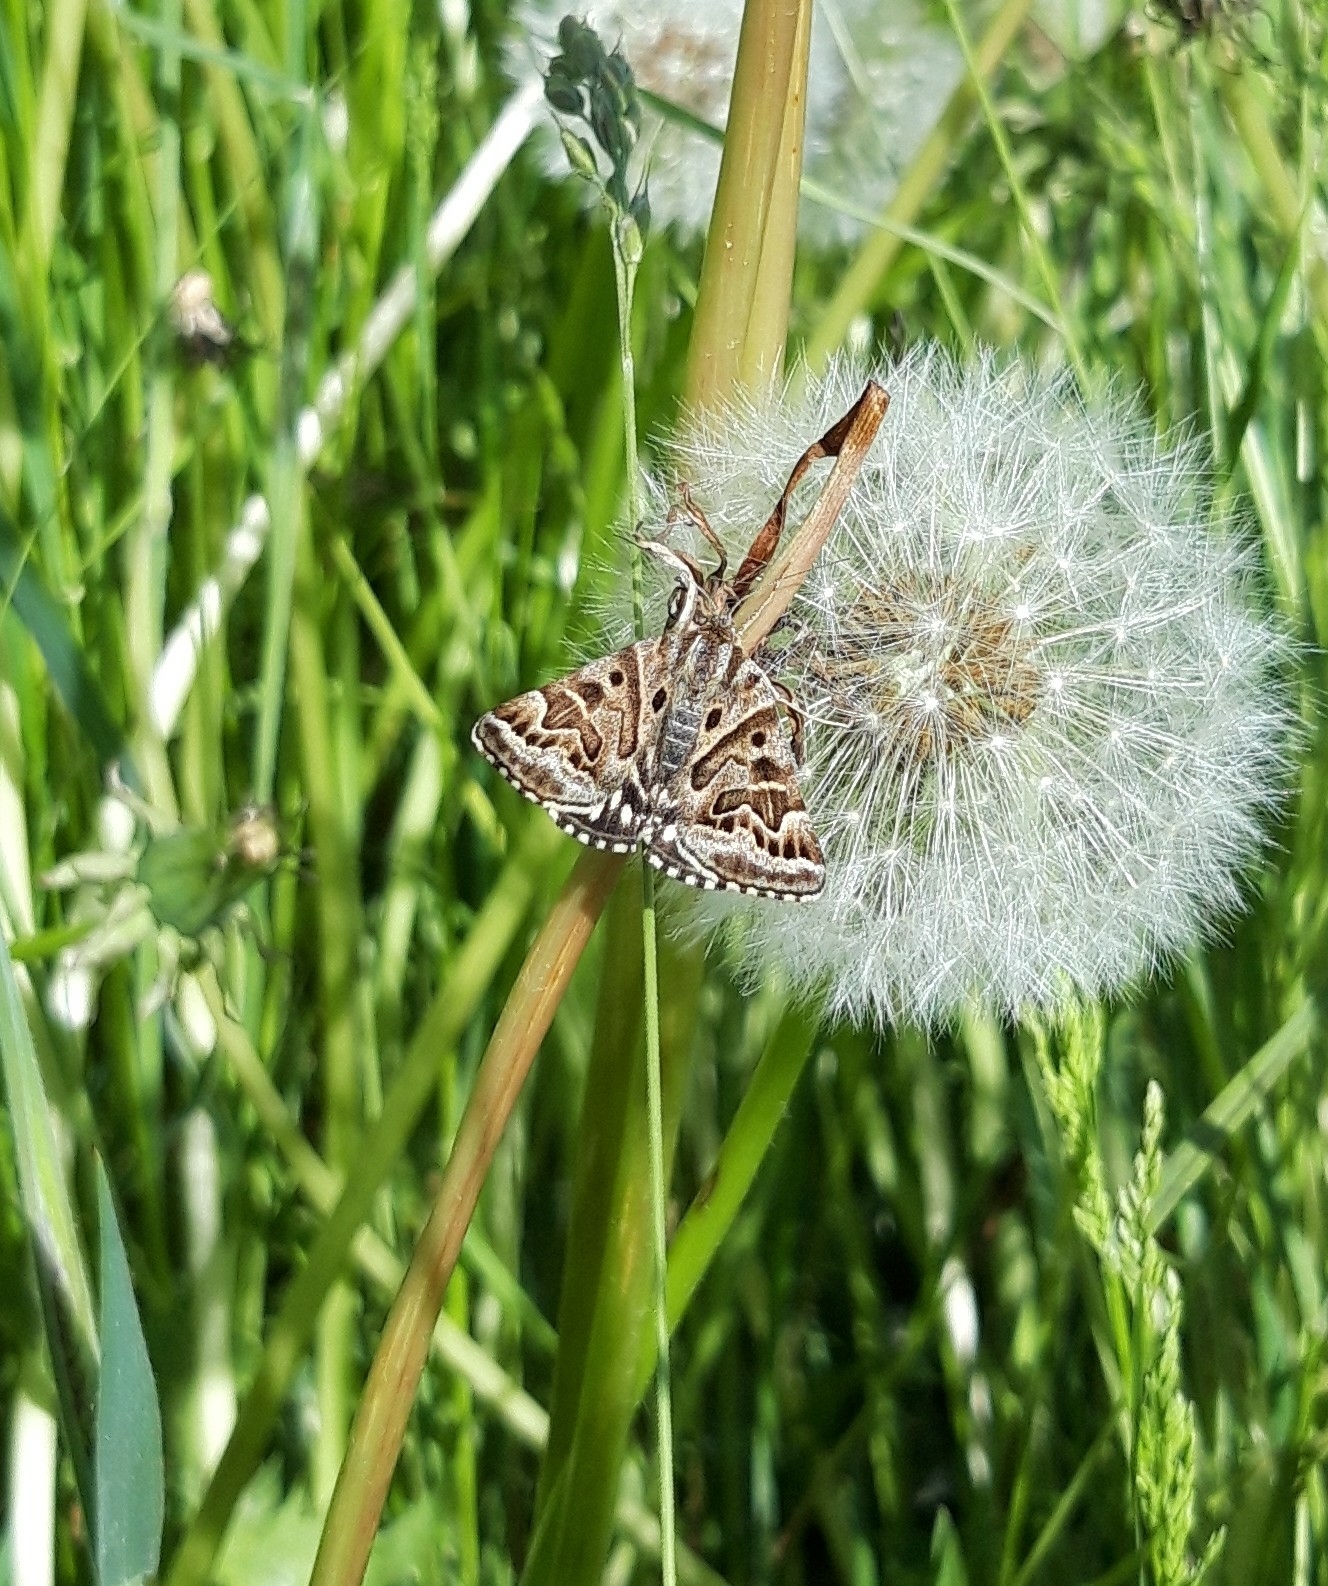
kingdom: Animalia
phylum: Arthropoda
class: Insecta
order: Lepidoptera
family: Erebidae
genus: Callistege
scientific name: Callistege mi
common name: Mother shipton
